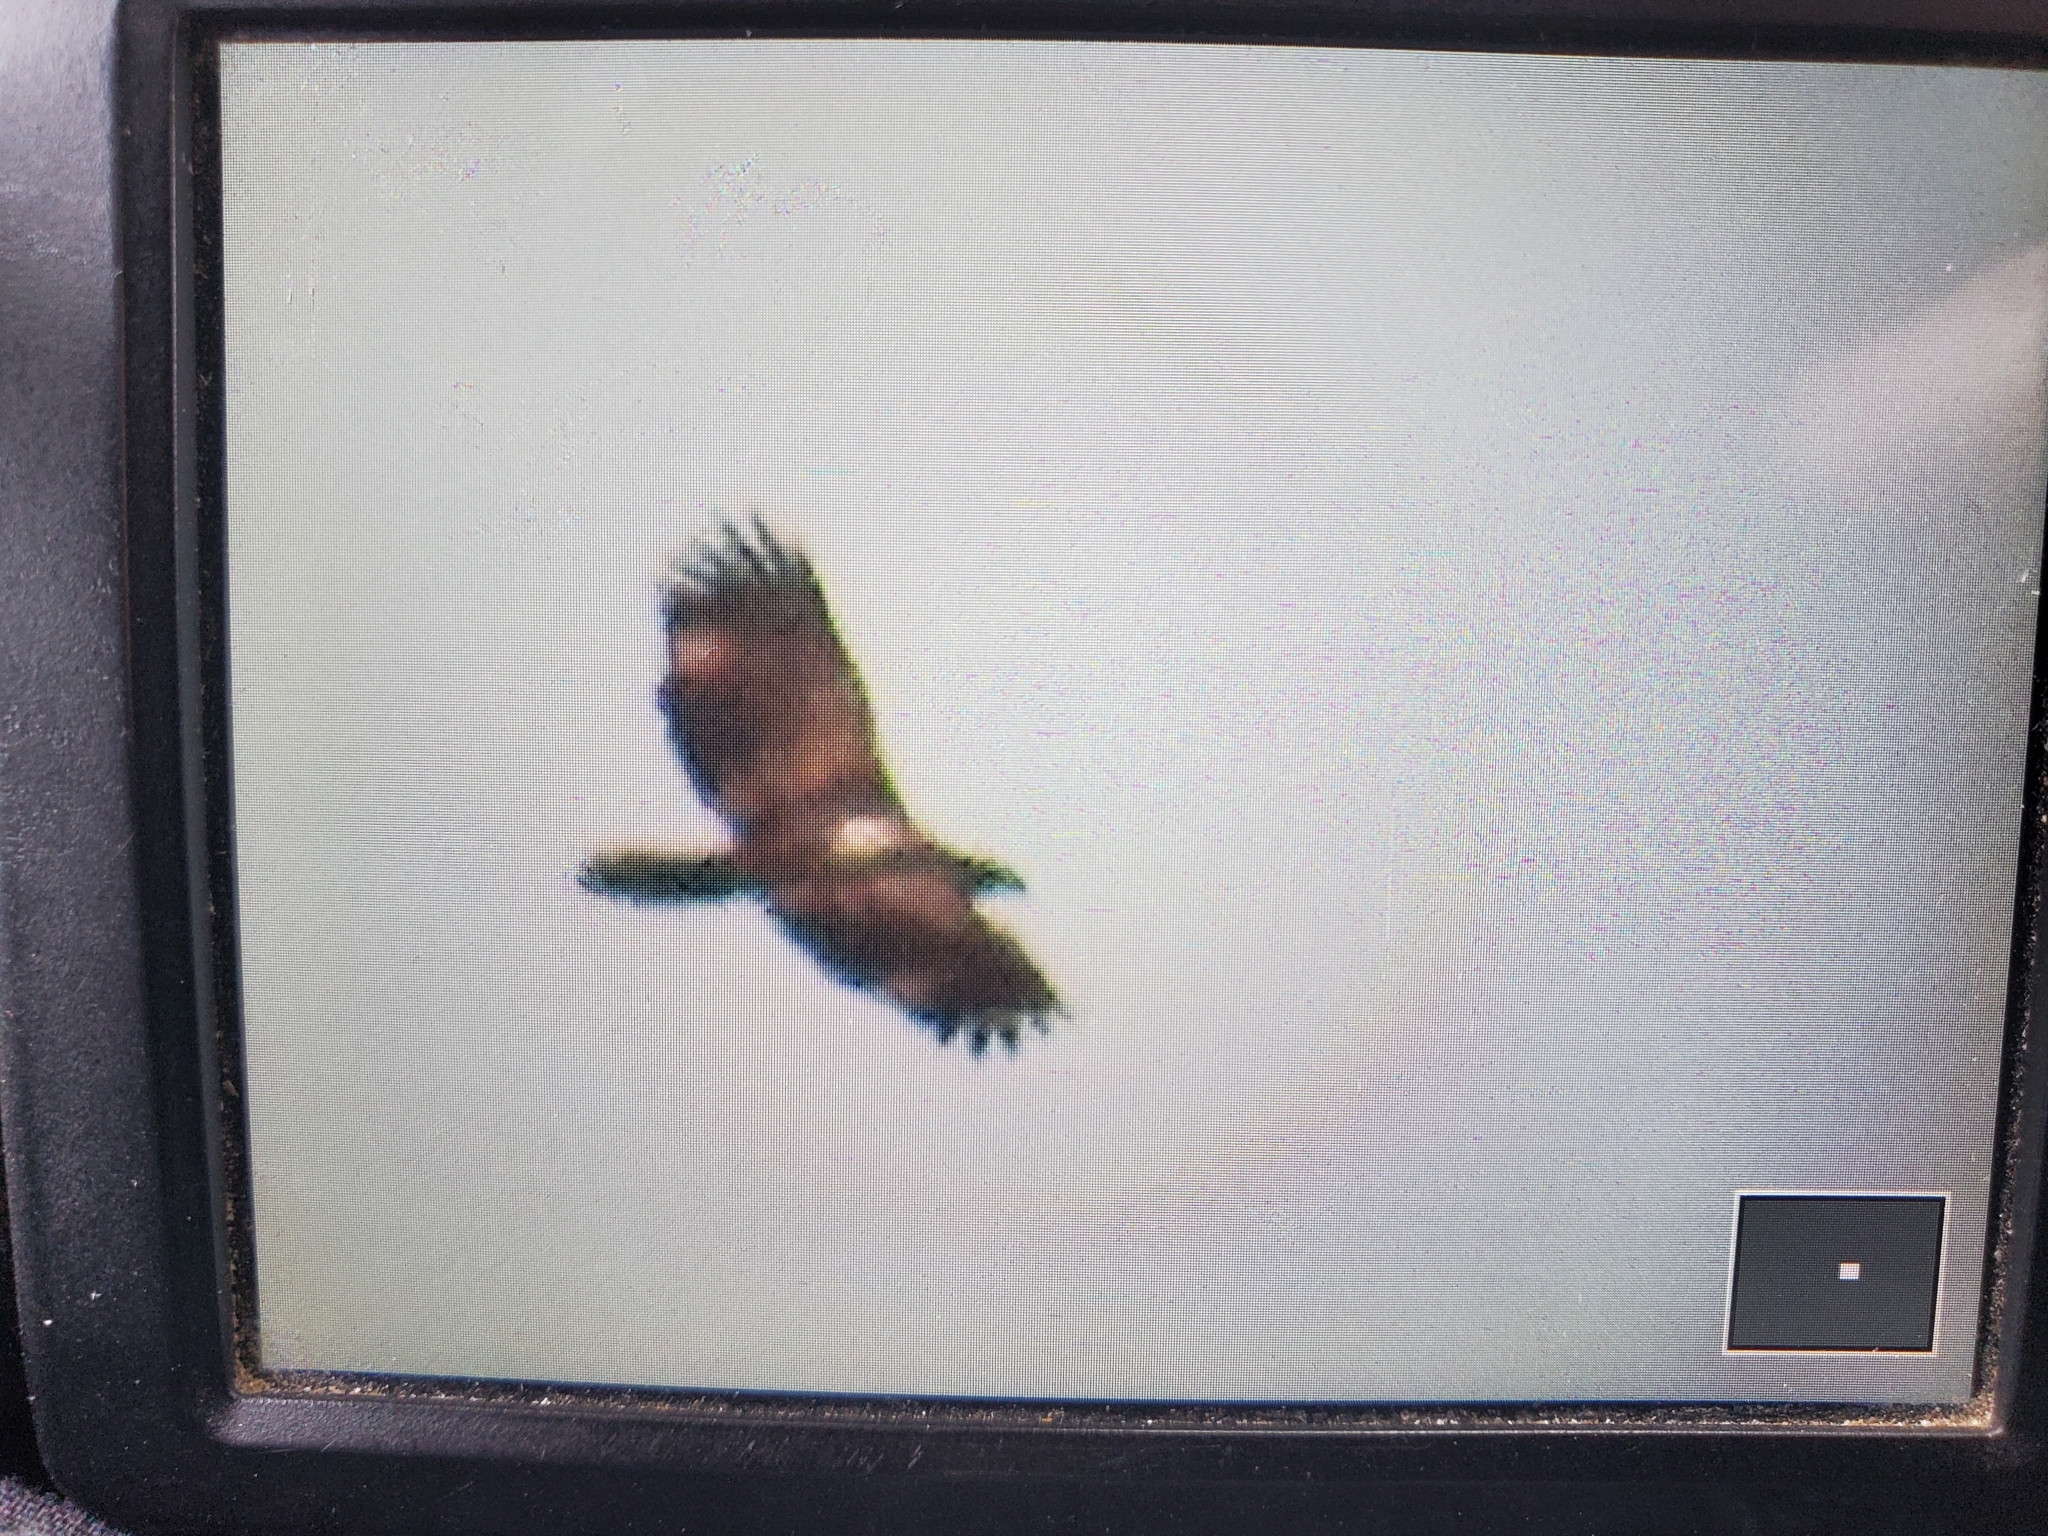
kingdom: Animalia
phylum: Chordata
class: Aves
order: Accipitriformes
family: Accipitridae
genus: Haliaeetus
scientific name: Haliaeetus leucocephalus
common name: Bald eagle
